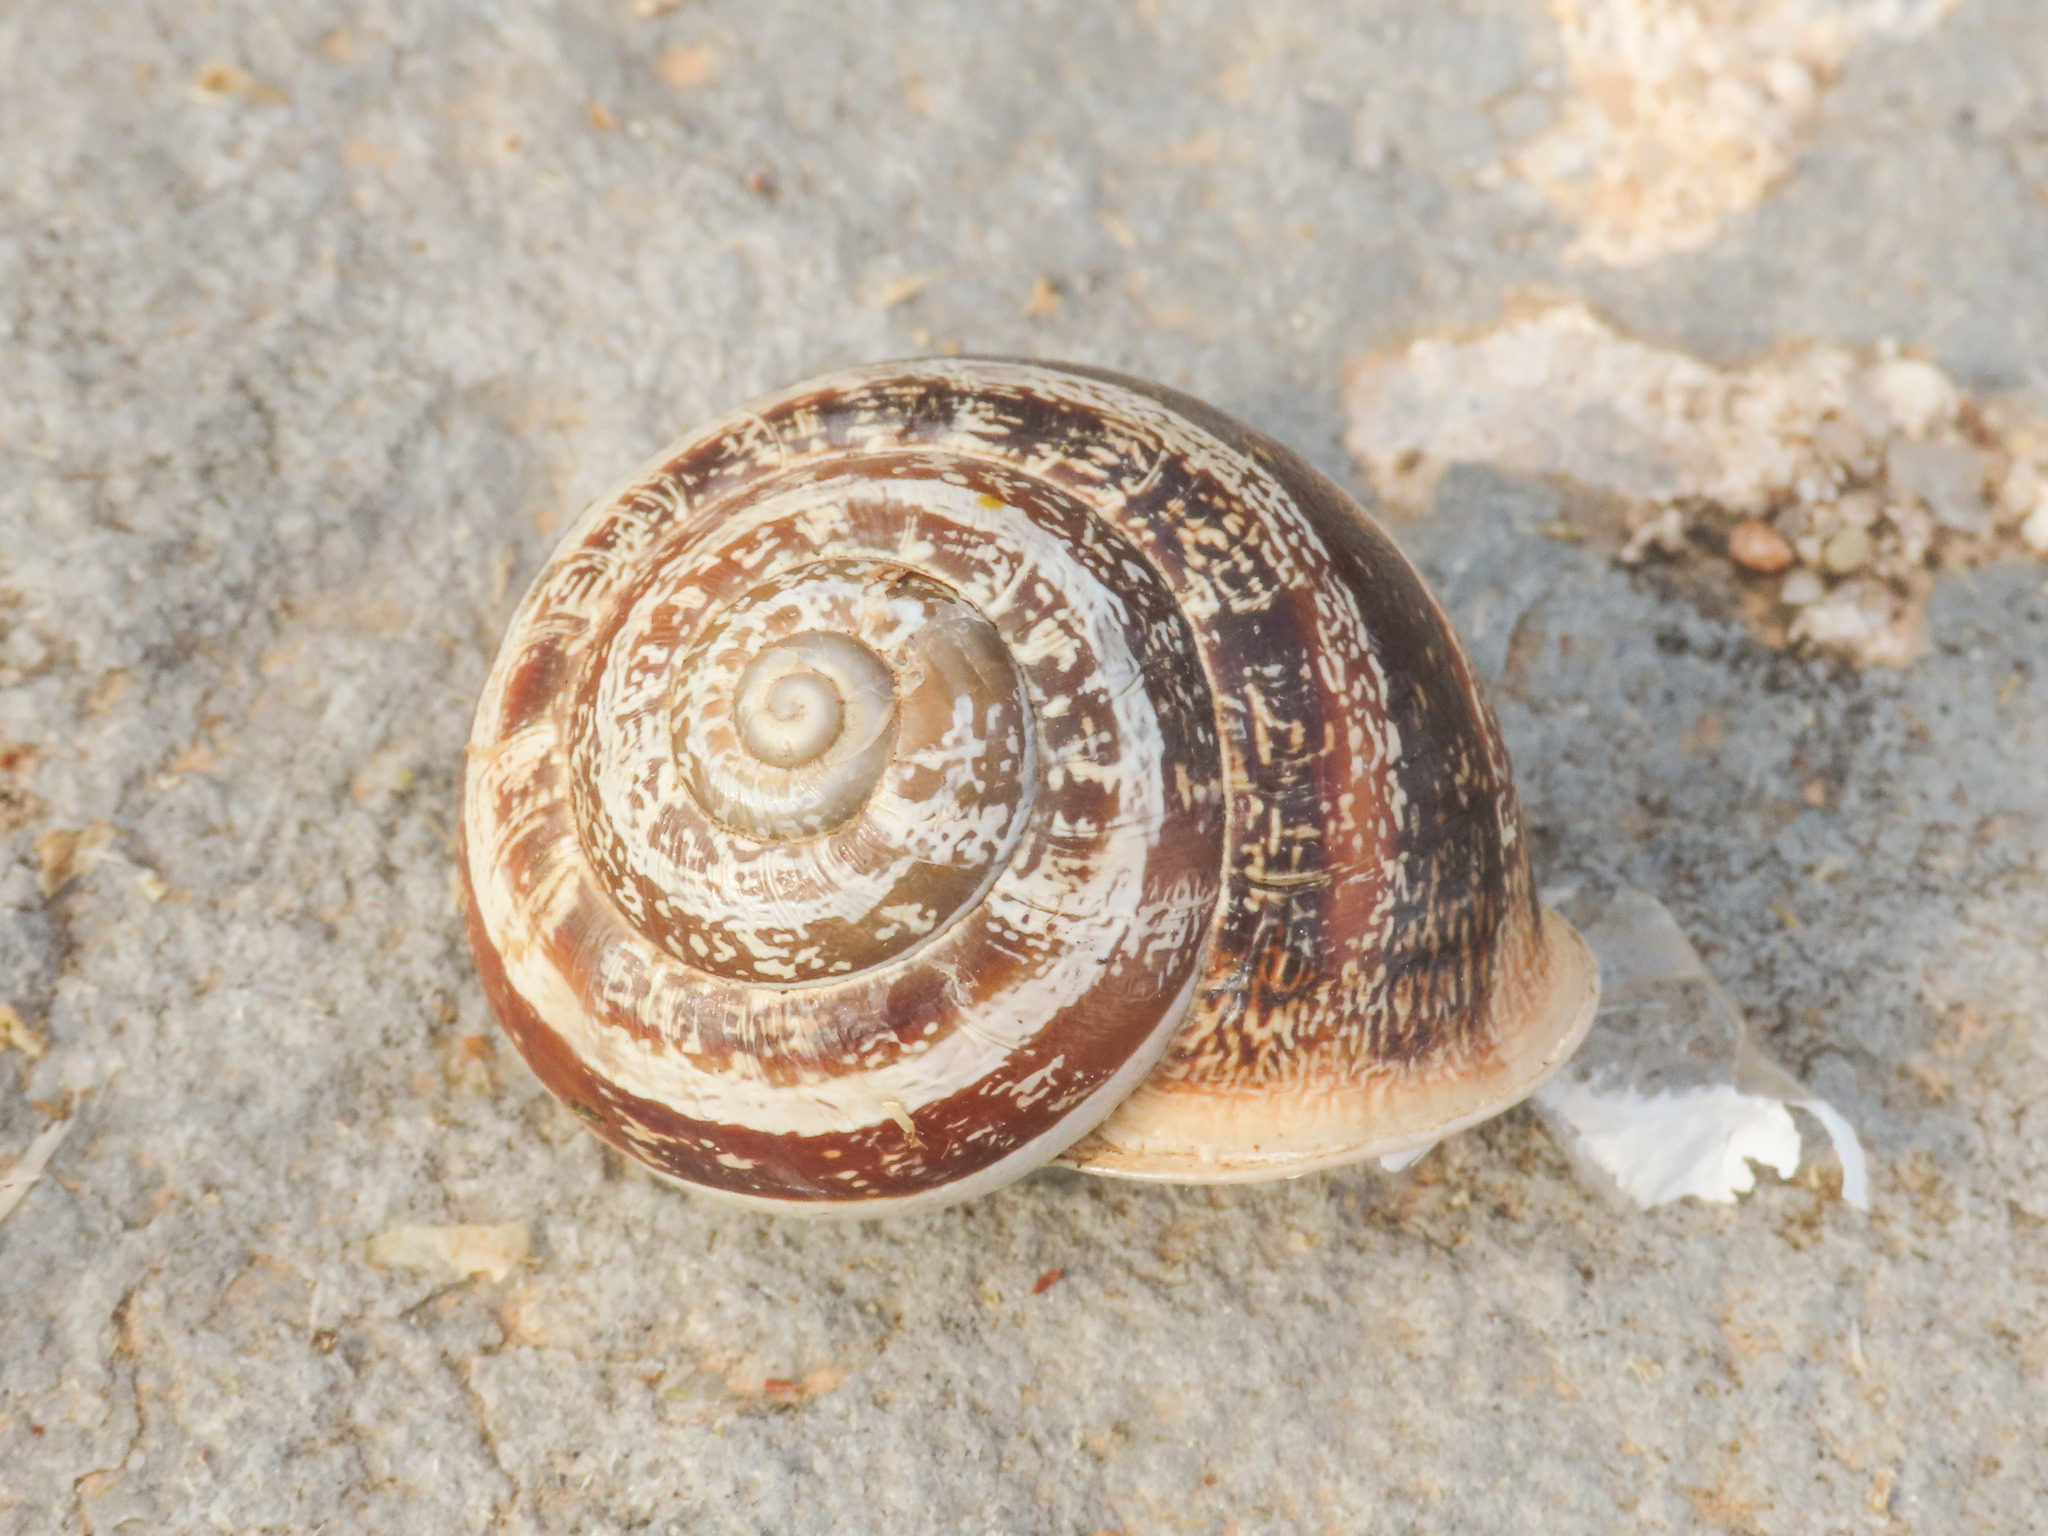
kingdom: Animalia
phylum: Mollusca
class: Gastropoda
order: Stylommatophora
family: Helicidae
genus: Eobania
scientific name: Eobania vermiculata
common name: Chocolateband snail
